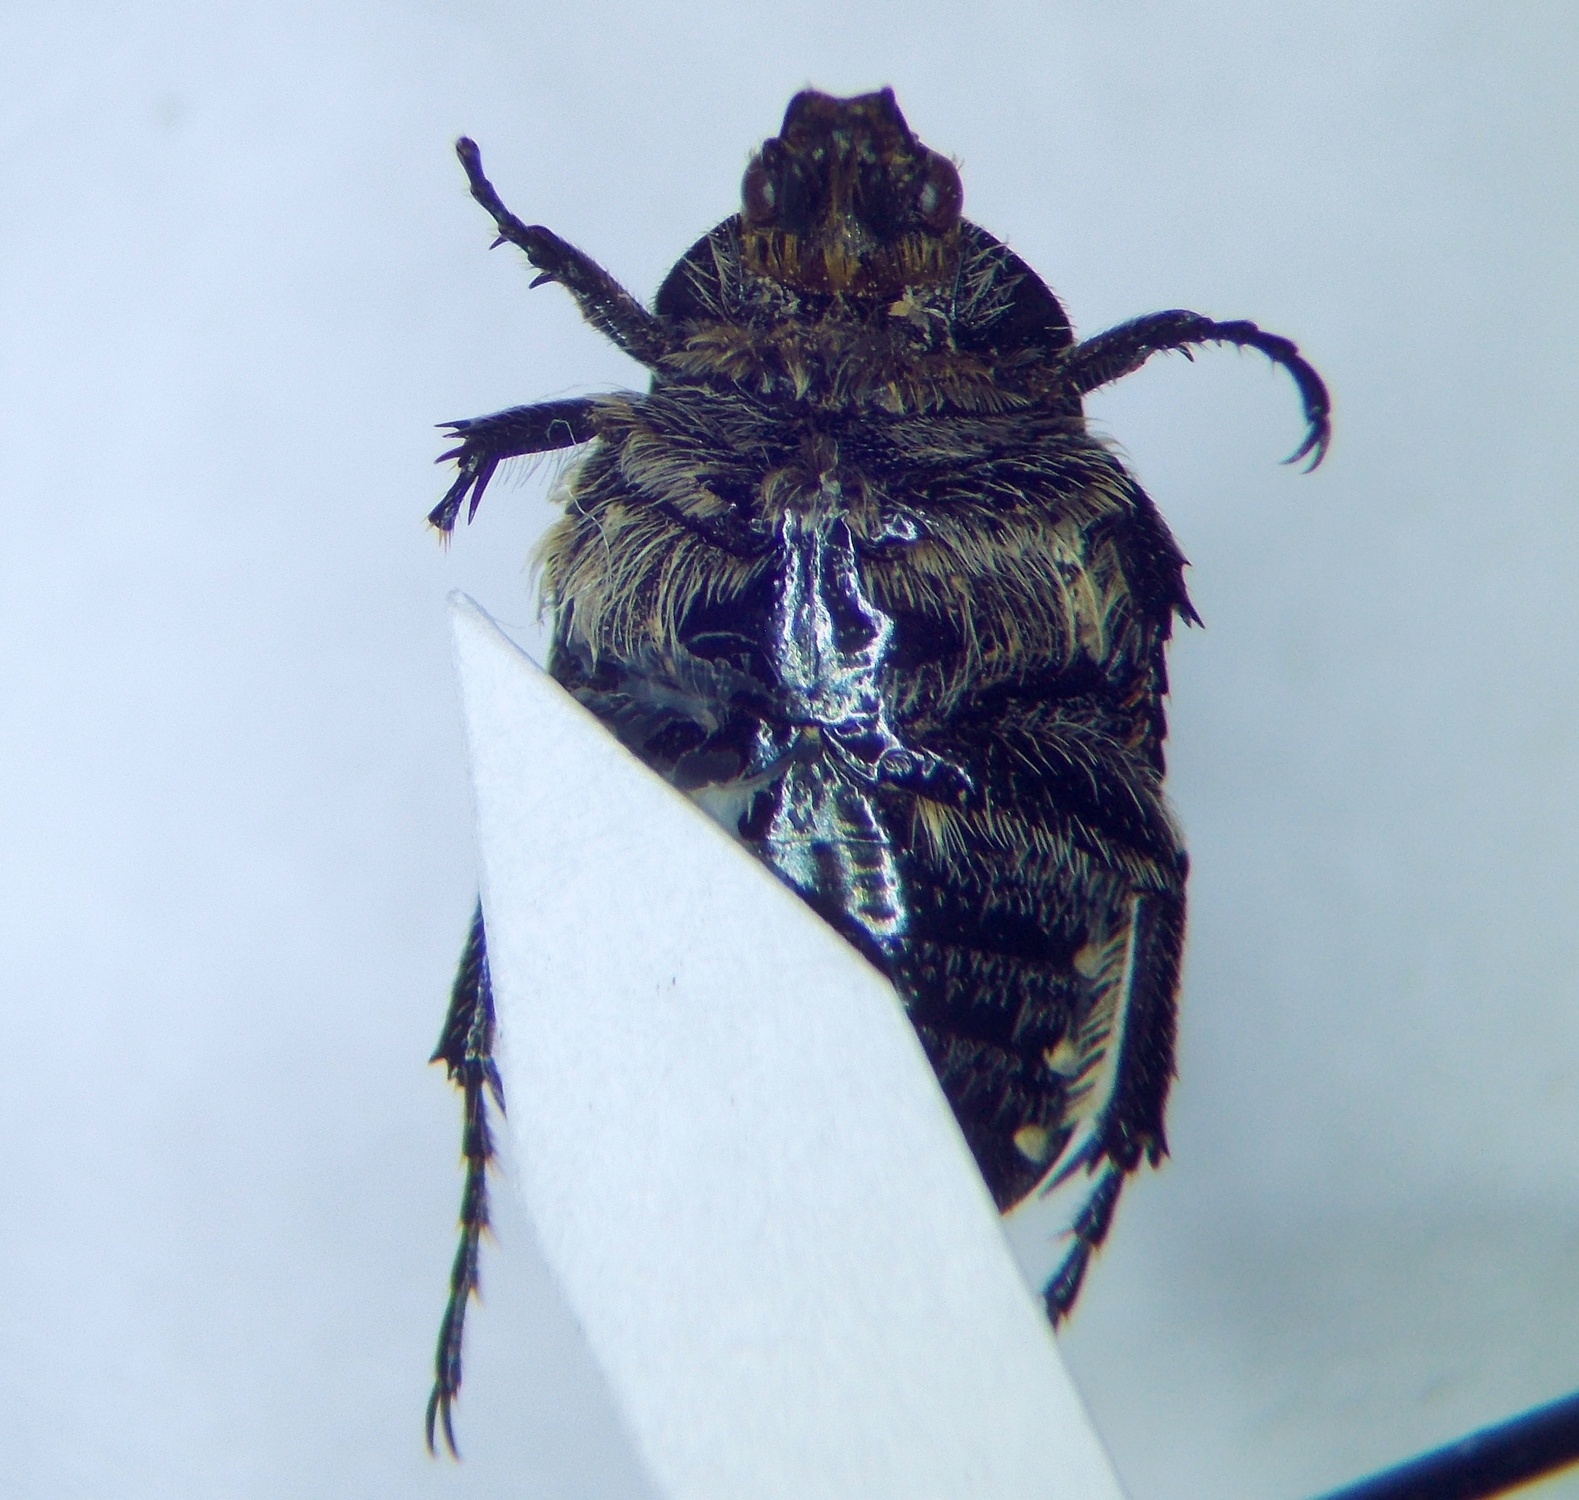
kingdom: Animalia
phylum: Arthropoda
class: Insecta
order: Coleoptera
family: Scarabaeidae
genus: Oxythyrea
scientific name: Oxythyrea cinctella
